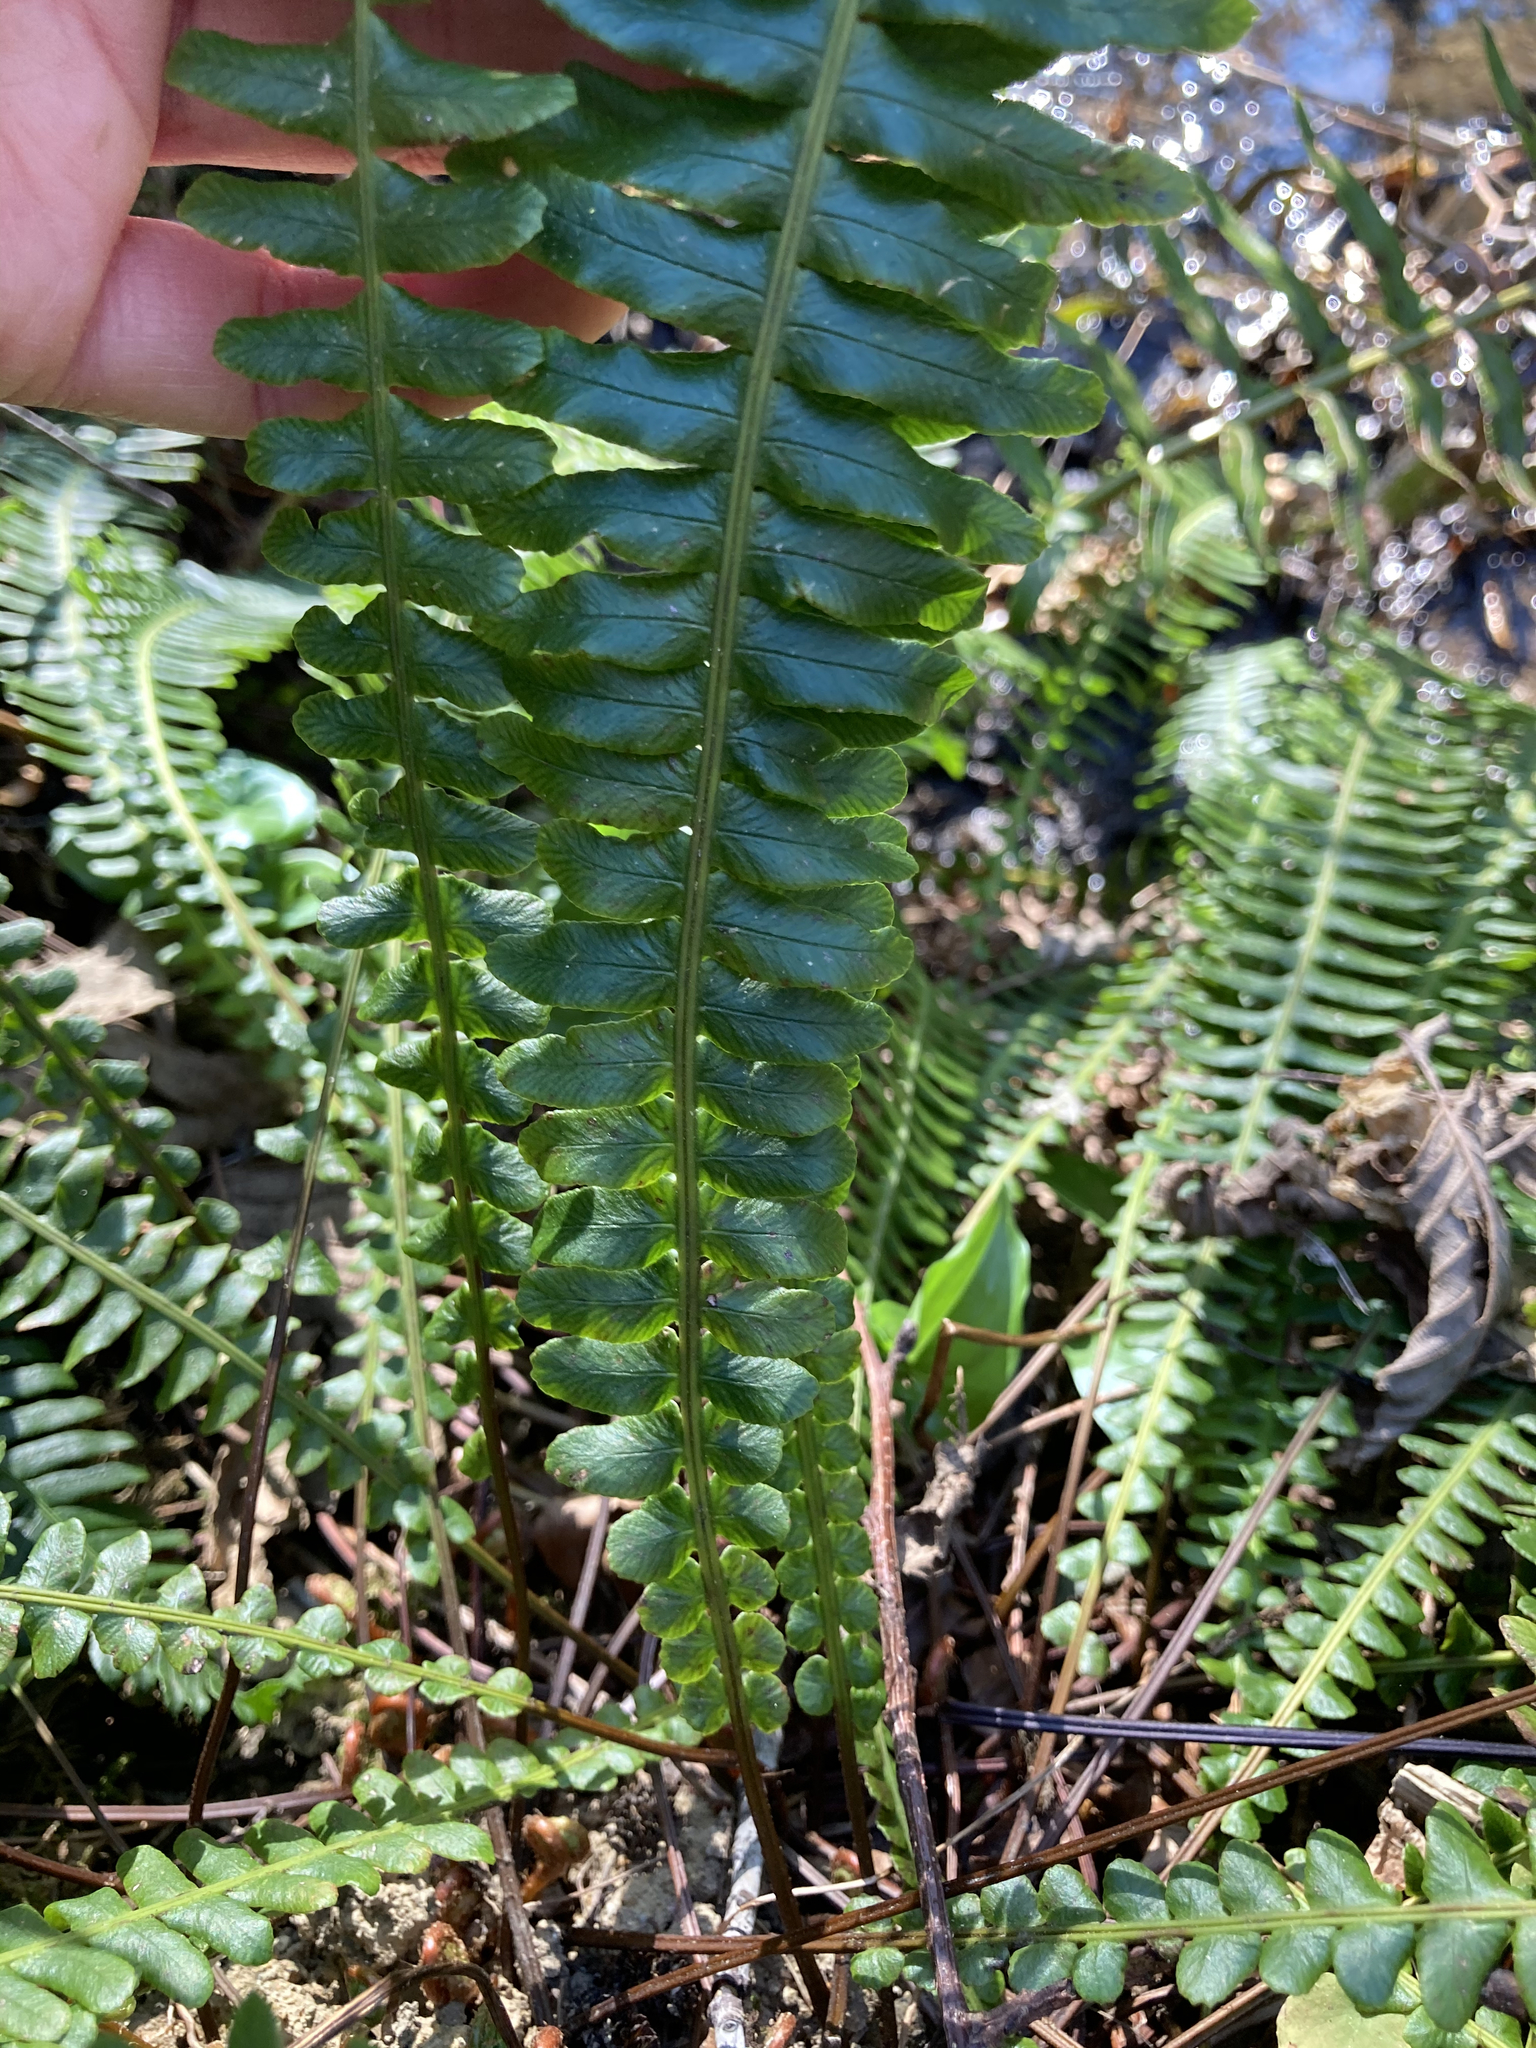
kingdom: Plantae
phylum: Tracheophyta
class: Polypodiopsida
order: Polypodiales
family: Blechnaceae
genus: Struthiopteris
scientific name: Struthiopteris spicant
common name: Deer fern
